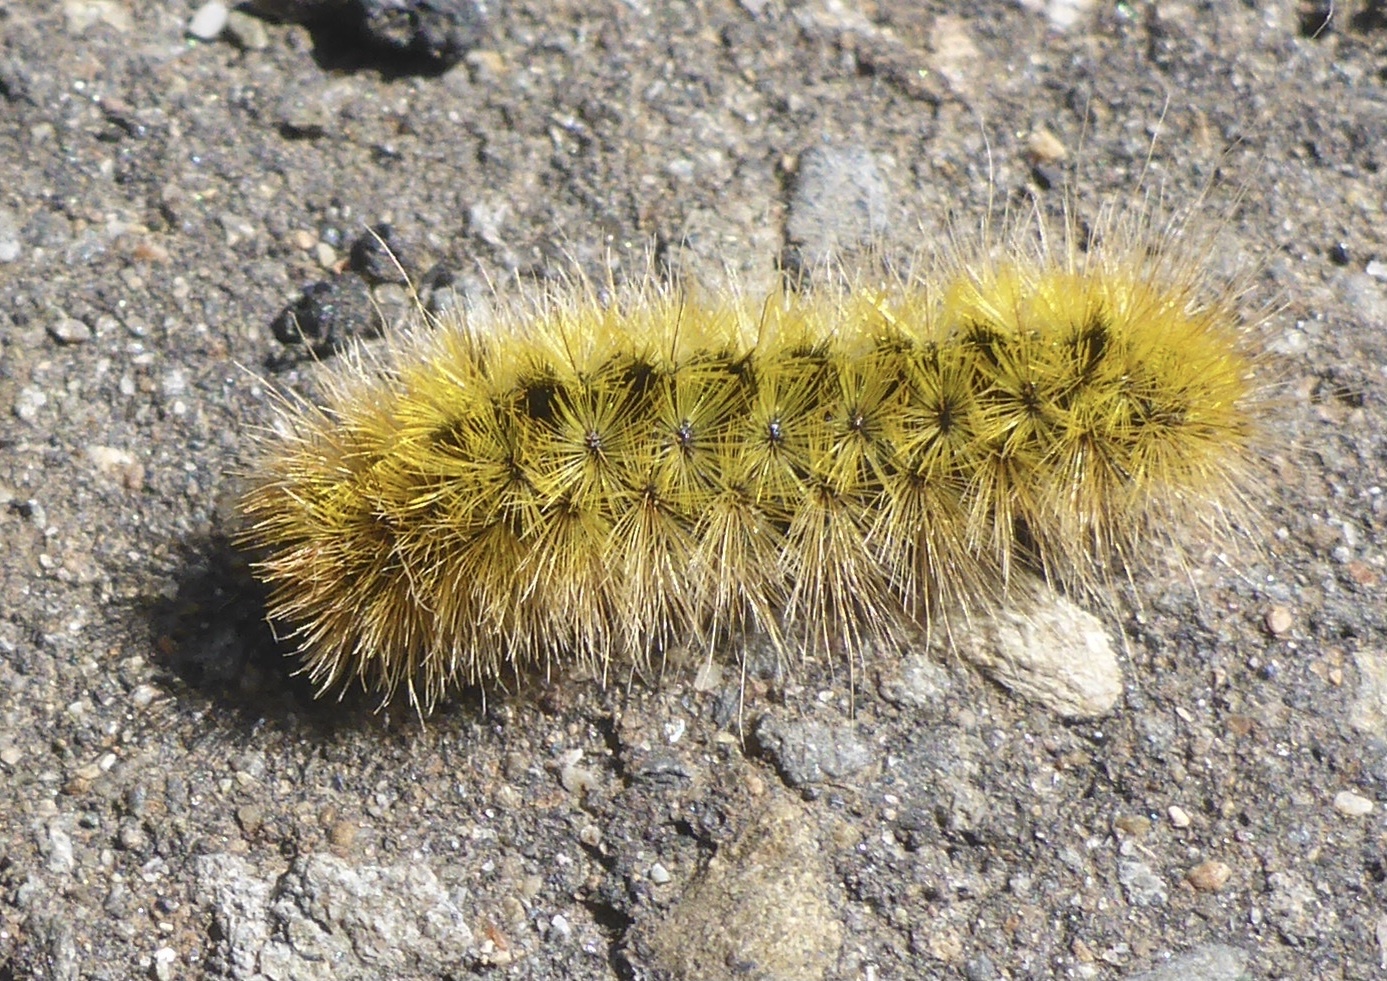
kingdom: Animalia
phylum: Arthropoda
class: Insecta
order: Lepidoptera
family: Erebidae
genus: Lophocampa
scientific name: Lophocampa argentata
